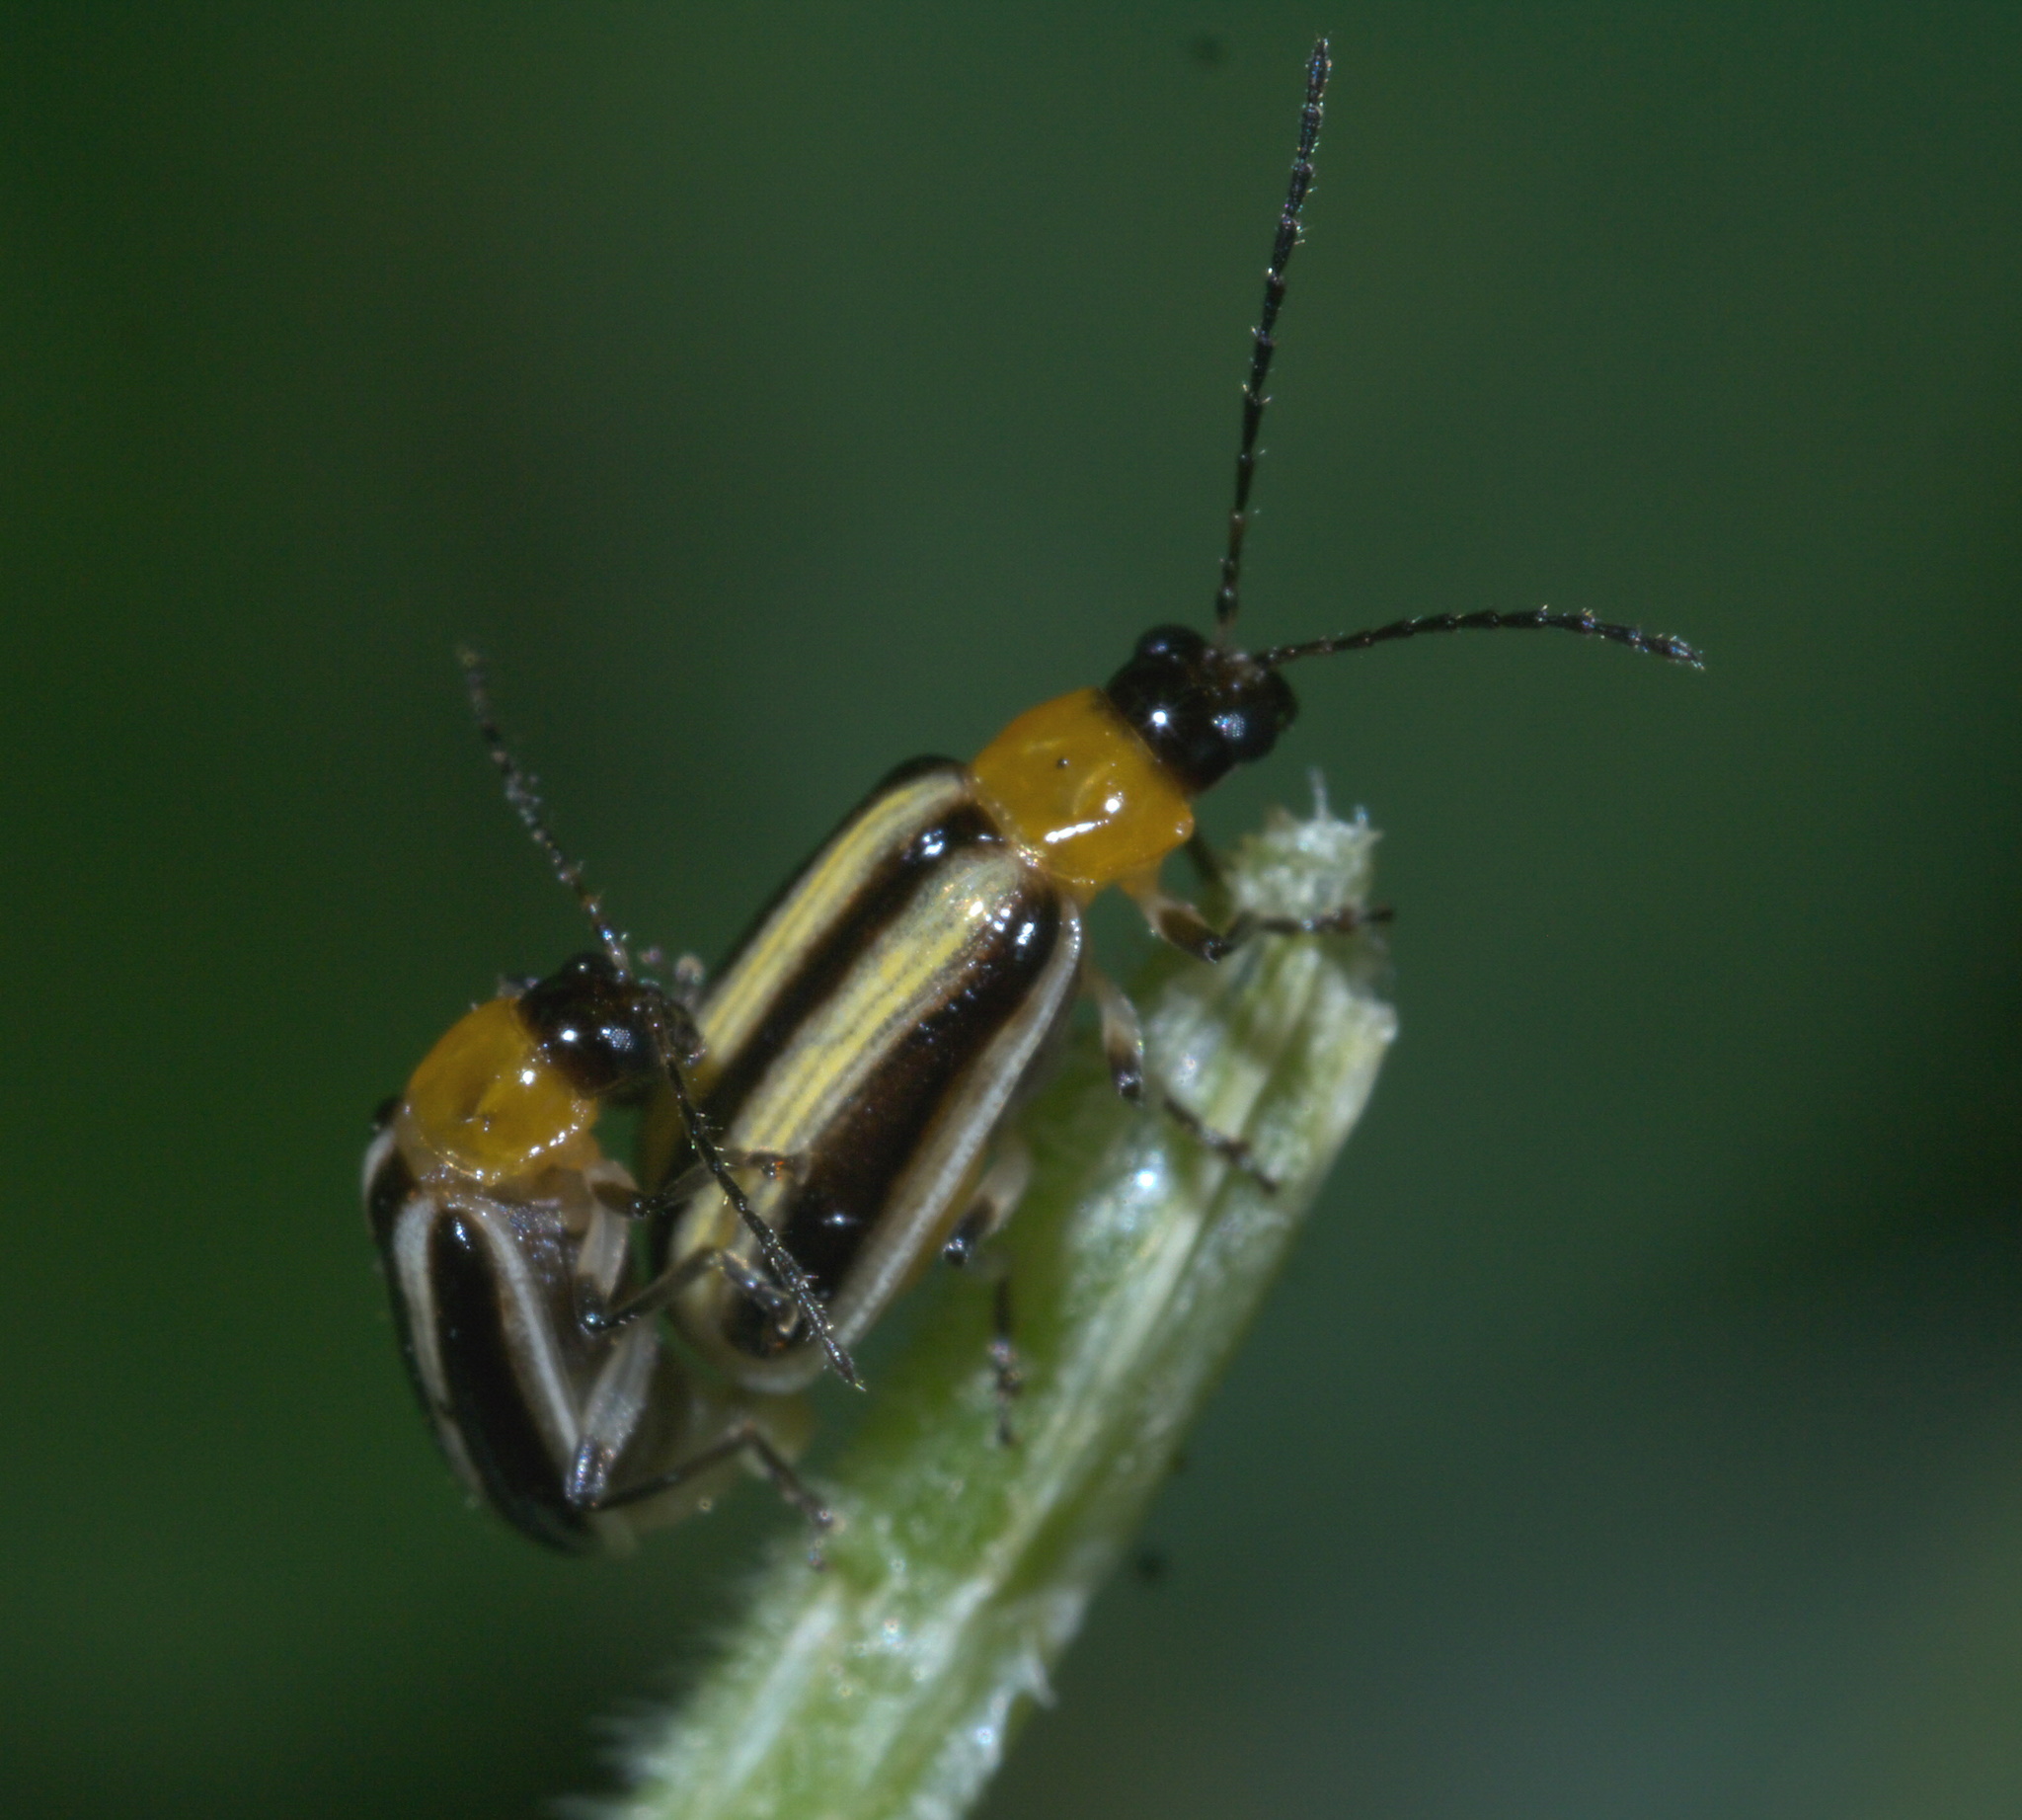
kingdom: Animalia
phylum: Arthropoda
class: Insecta
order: Coleoptera
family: Chrysomelidae
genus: Acalymma
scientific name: Acalymma blandulum
